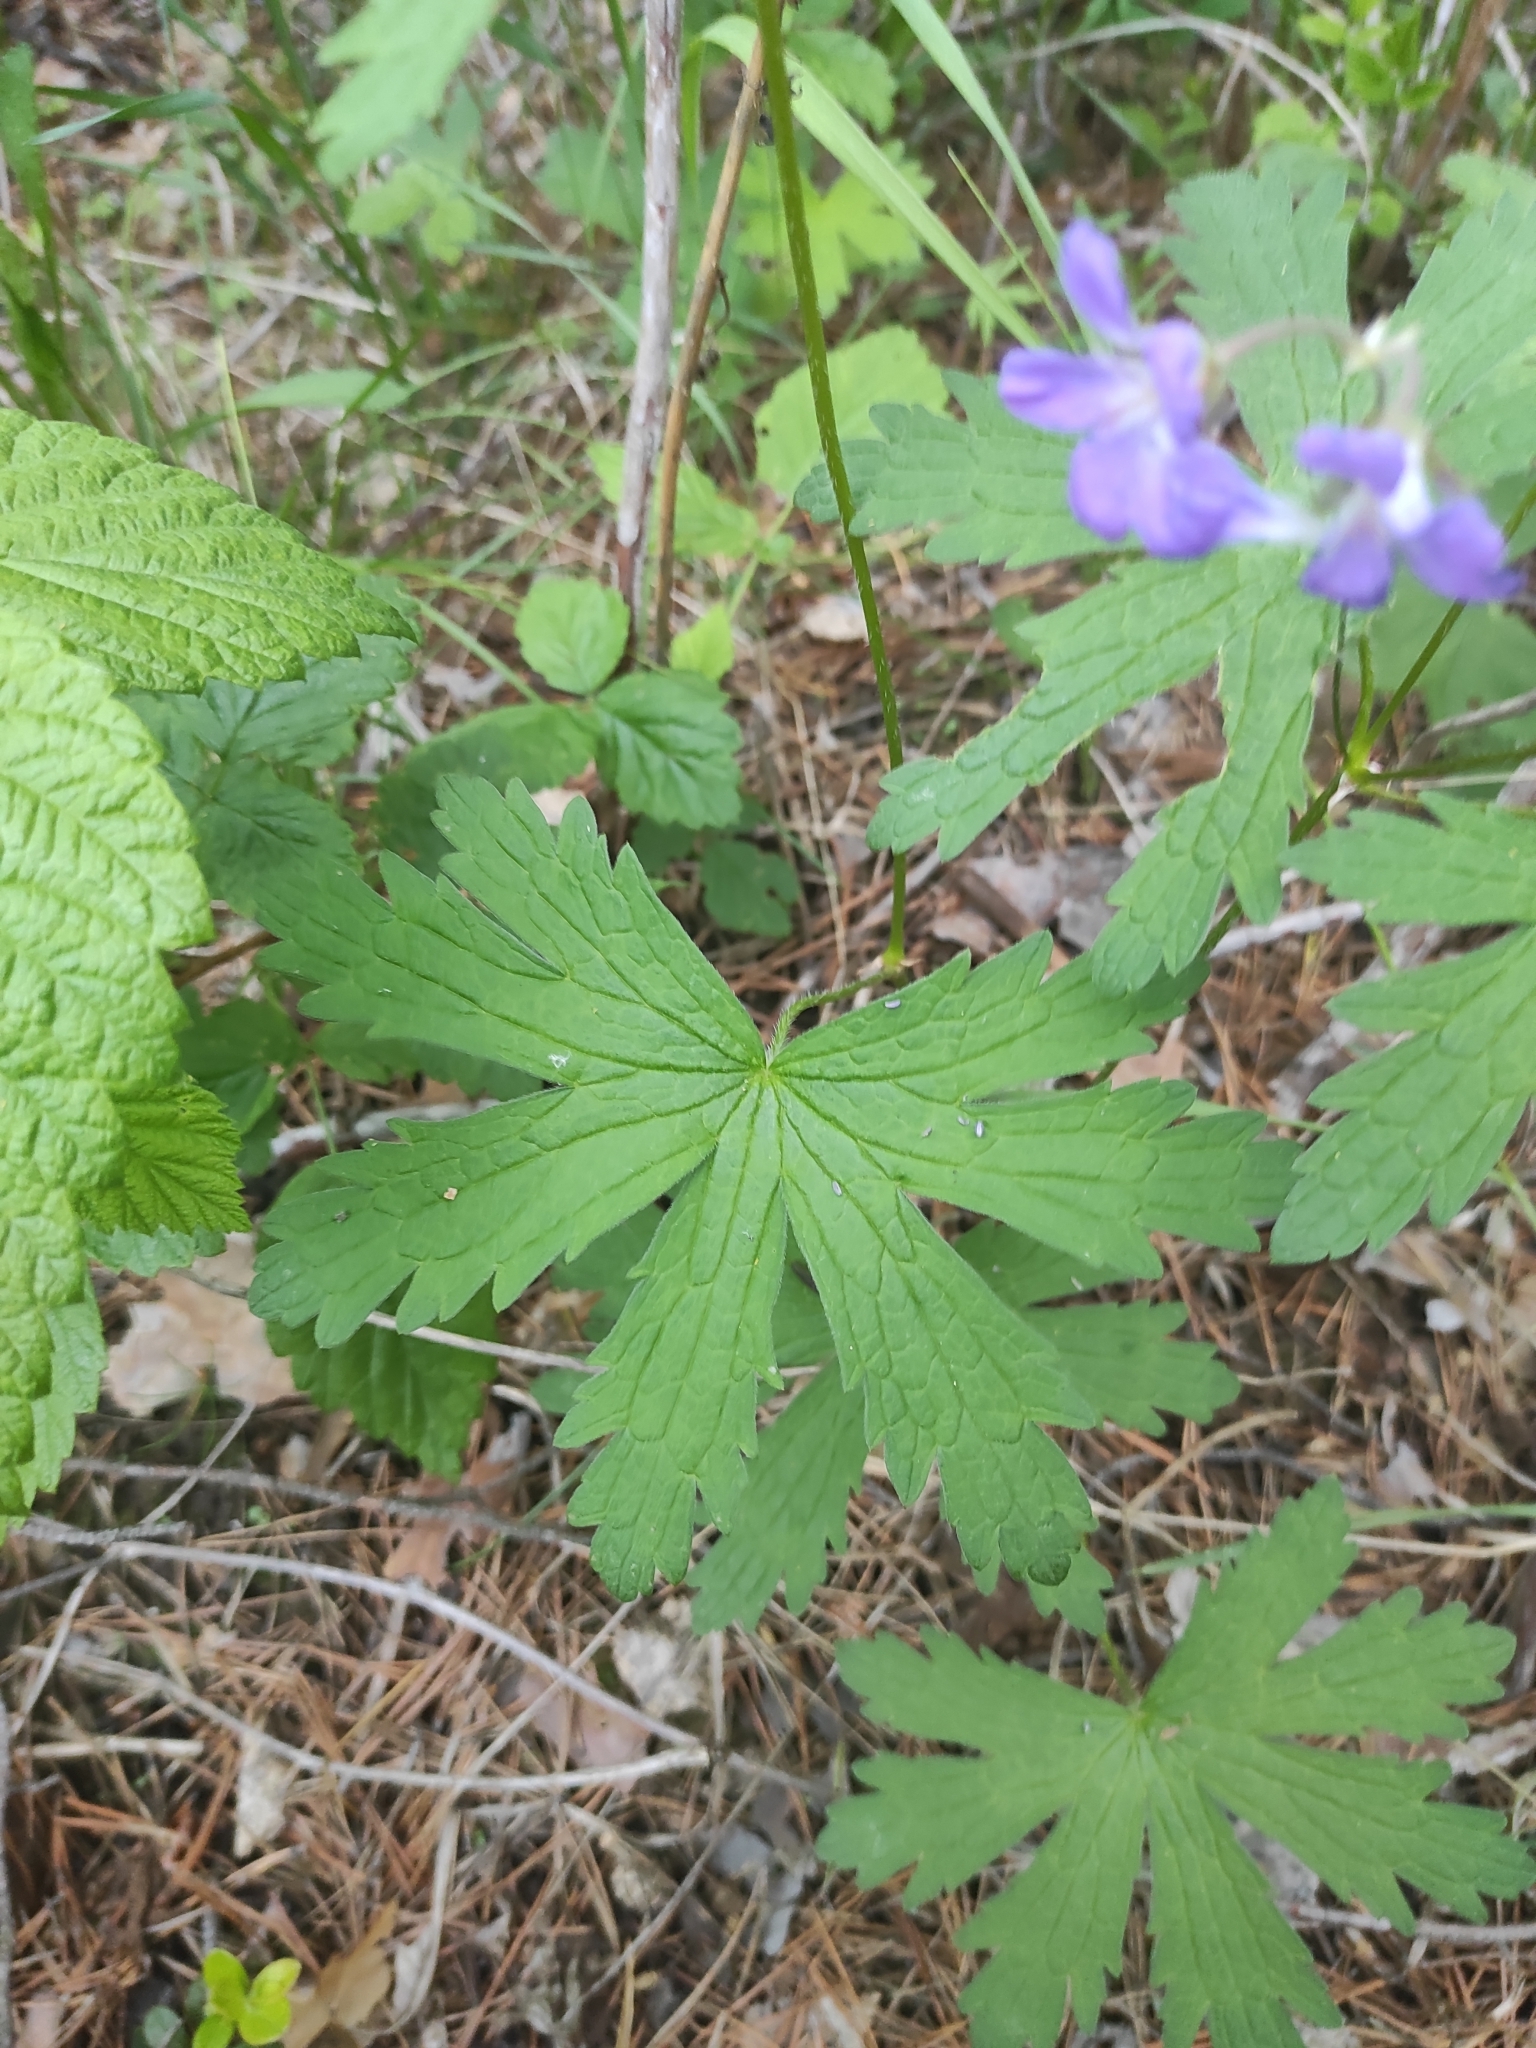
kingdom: Plantae
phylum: Tracheophyta
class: Magnoliopsida
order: Geraniales
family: Geraniaceae
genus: Geranium
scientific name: Geranium sylvaticum
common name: Wood crane's-bill
